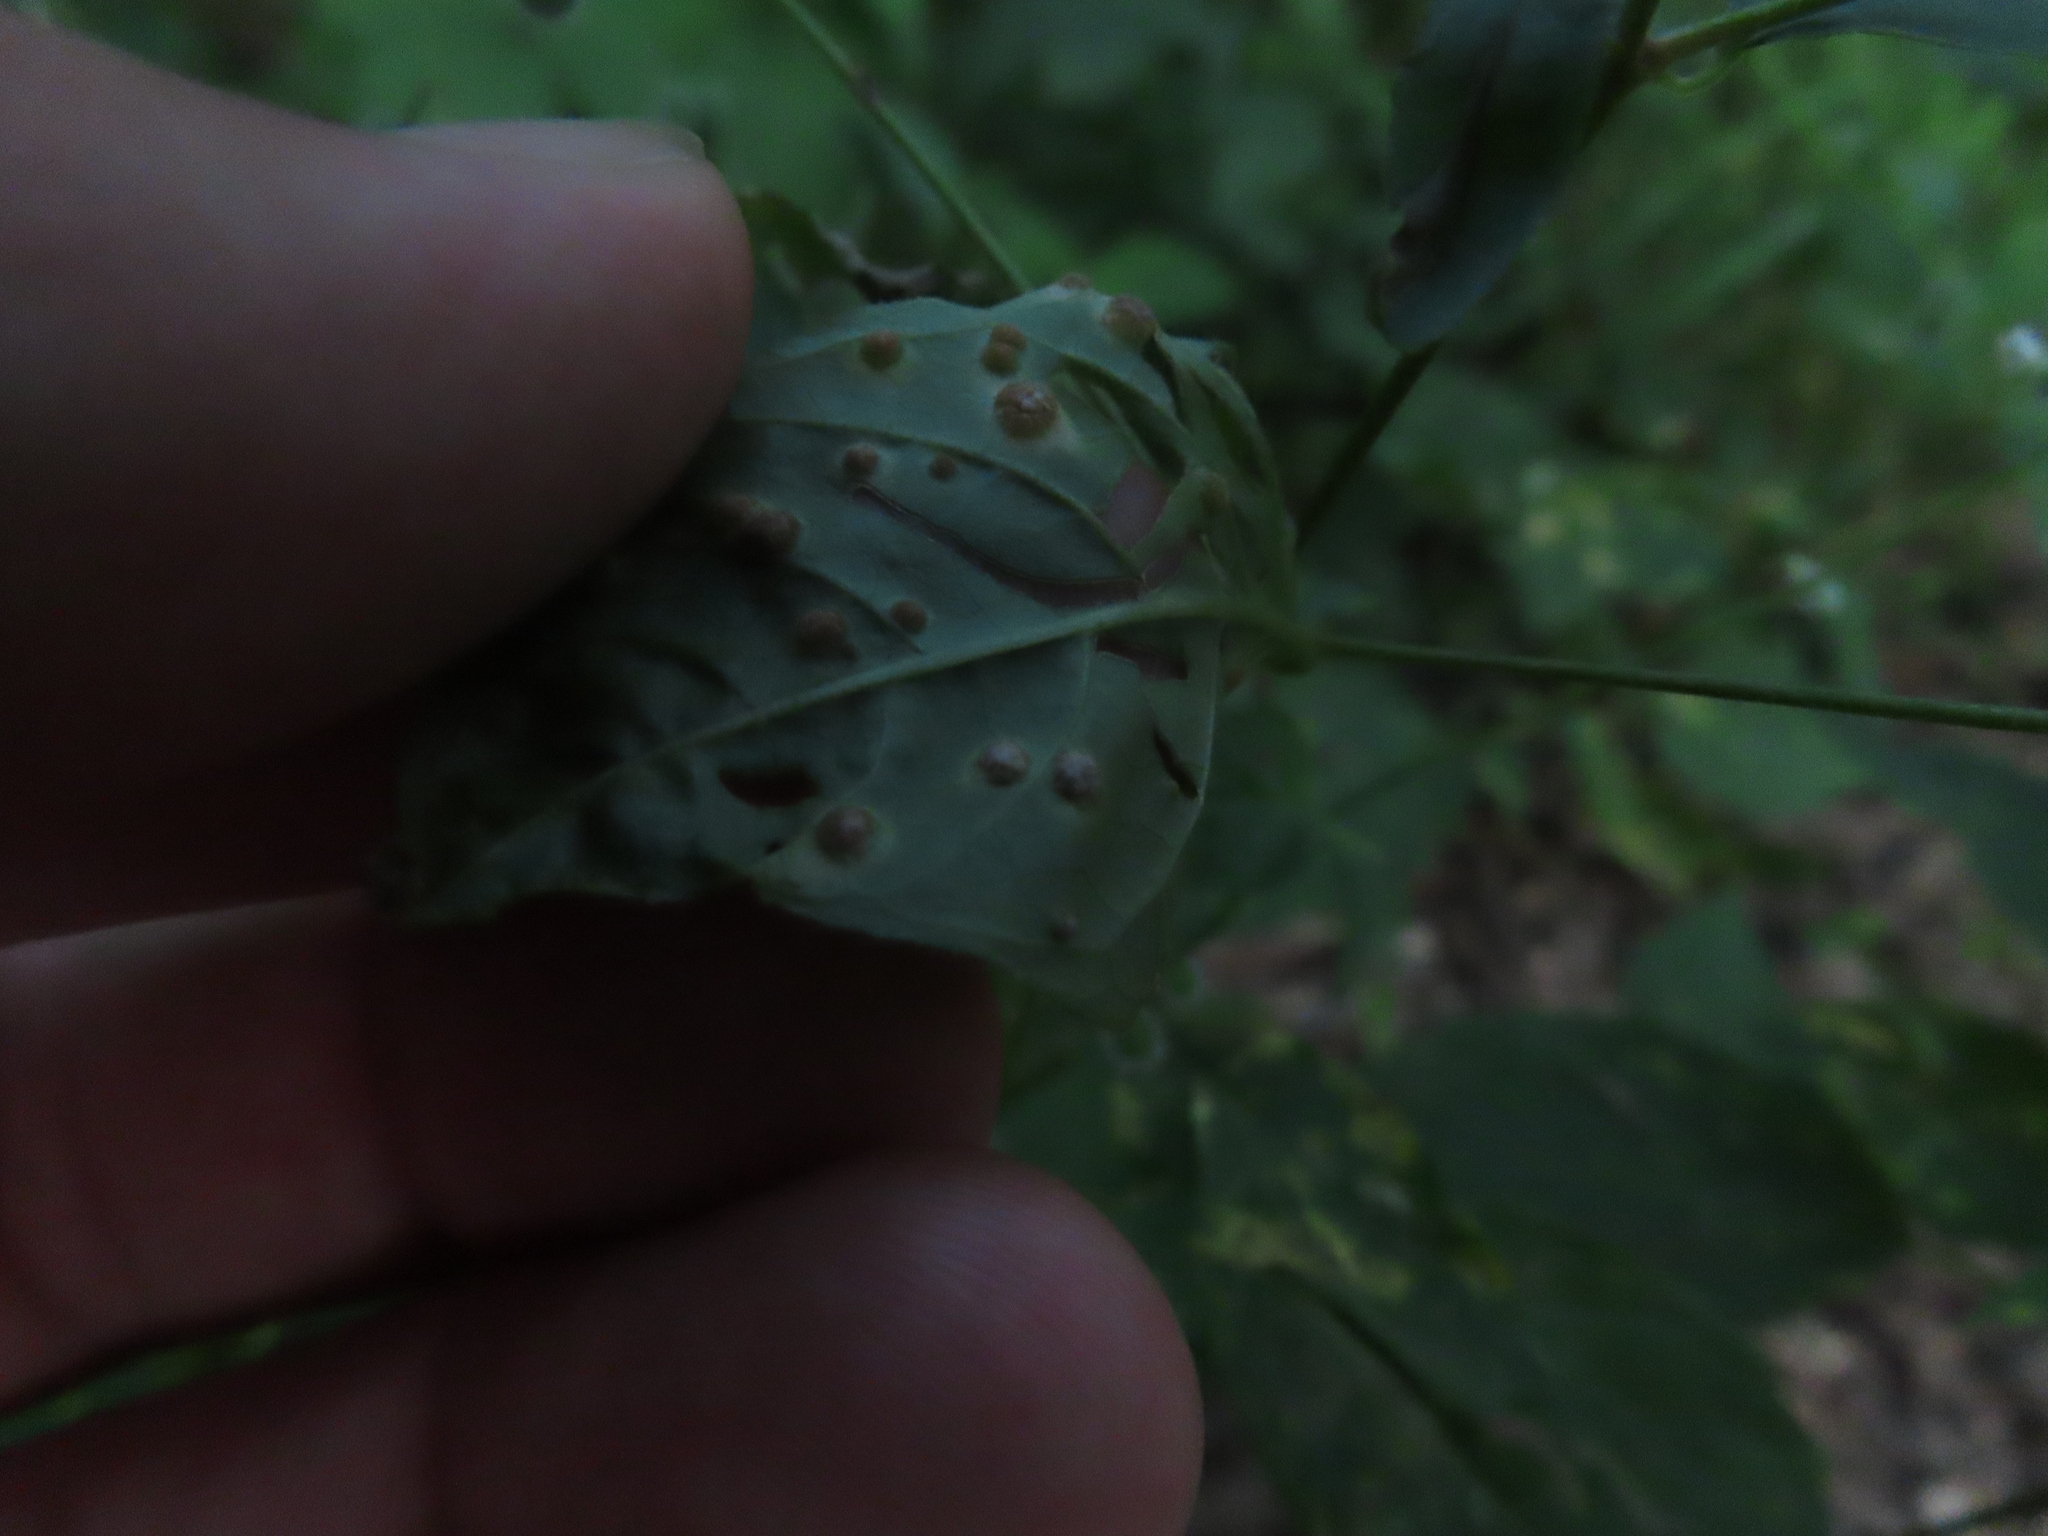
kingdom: Plantae
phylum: Tracheophyta
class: Magnoliopsida
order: Myrtales
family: Onagraceae
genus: Circaea
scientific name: Circaea canadensis
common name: Broad-leaved enchanter's nightshade
